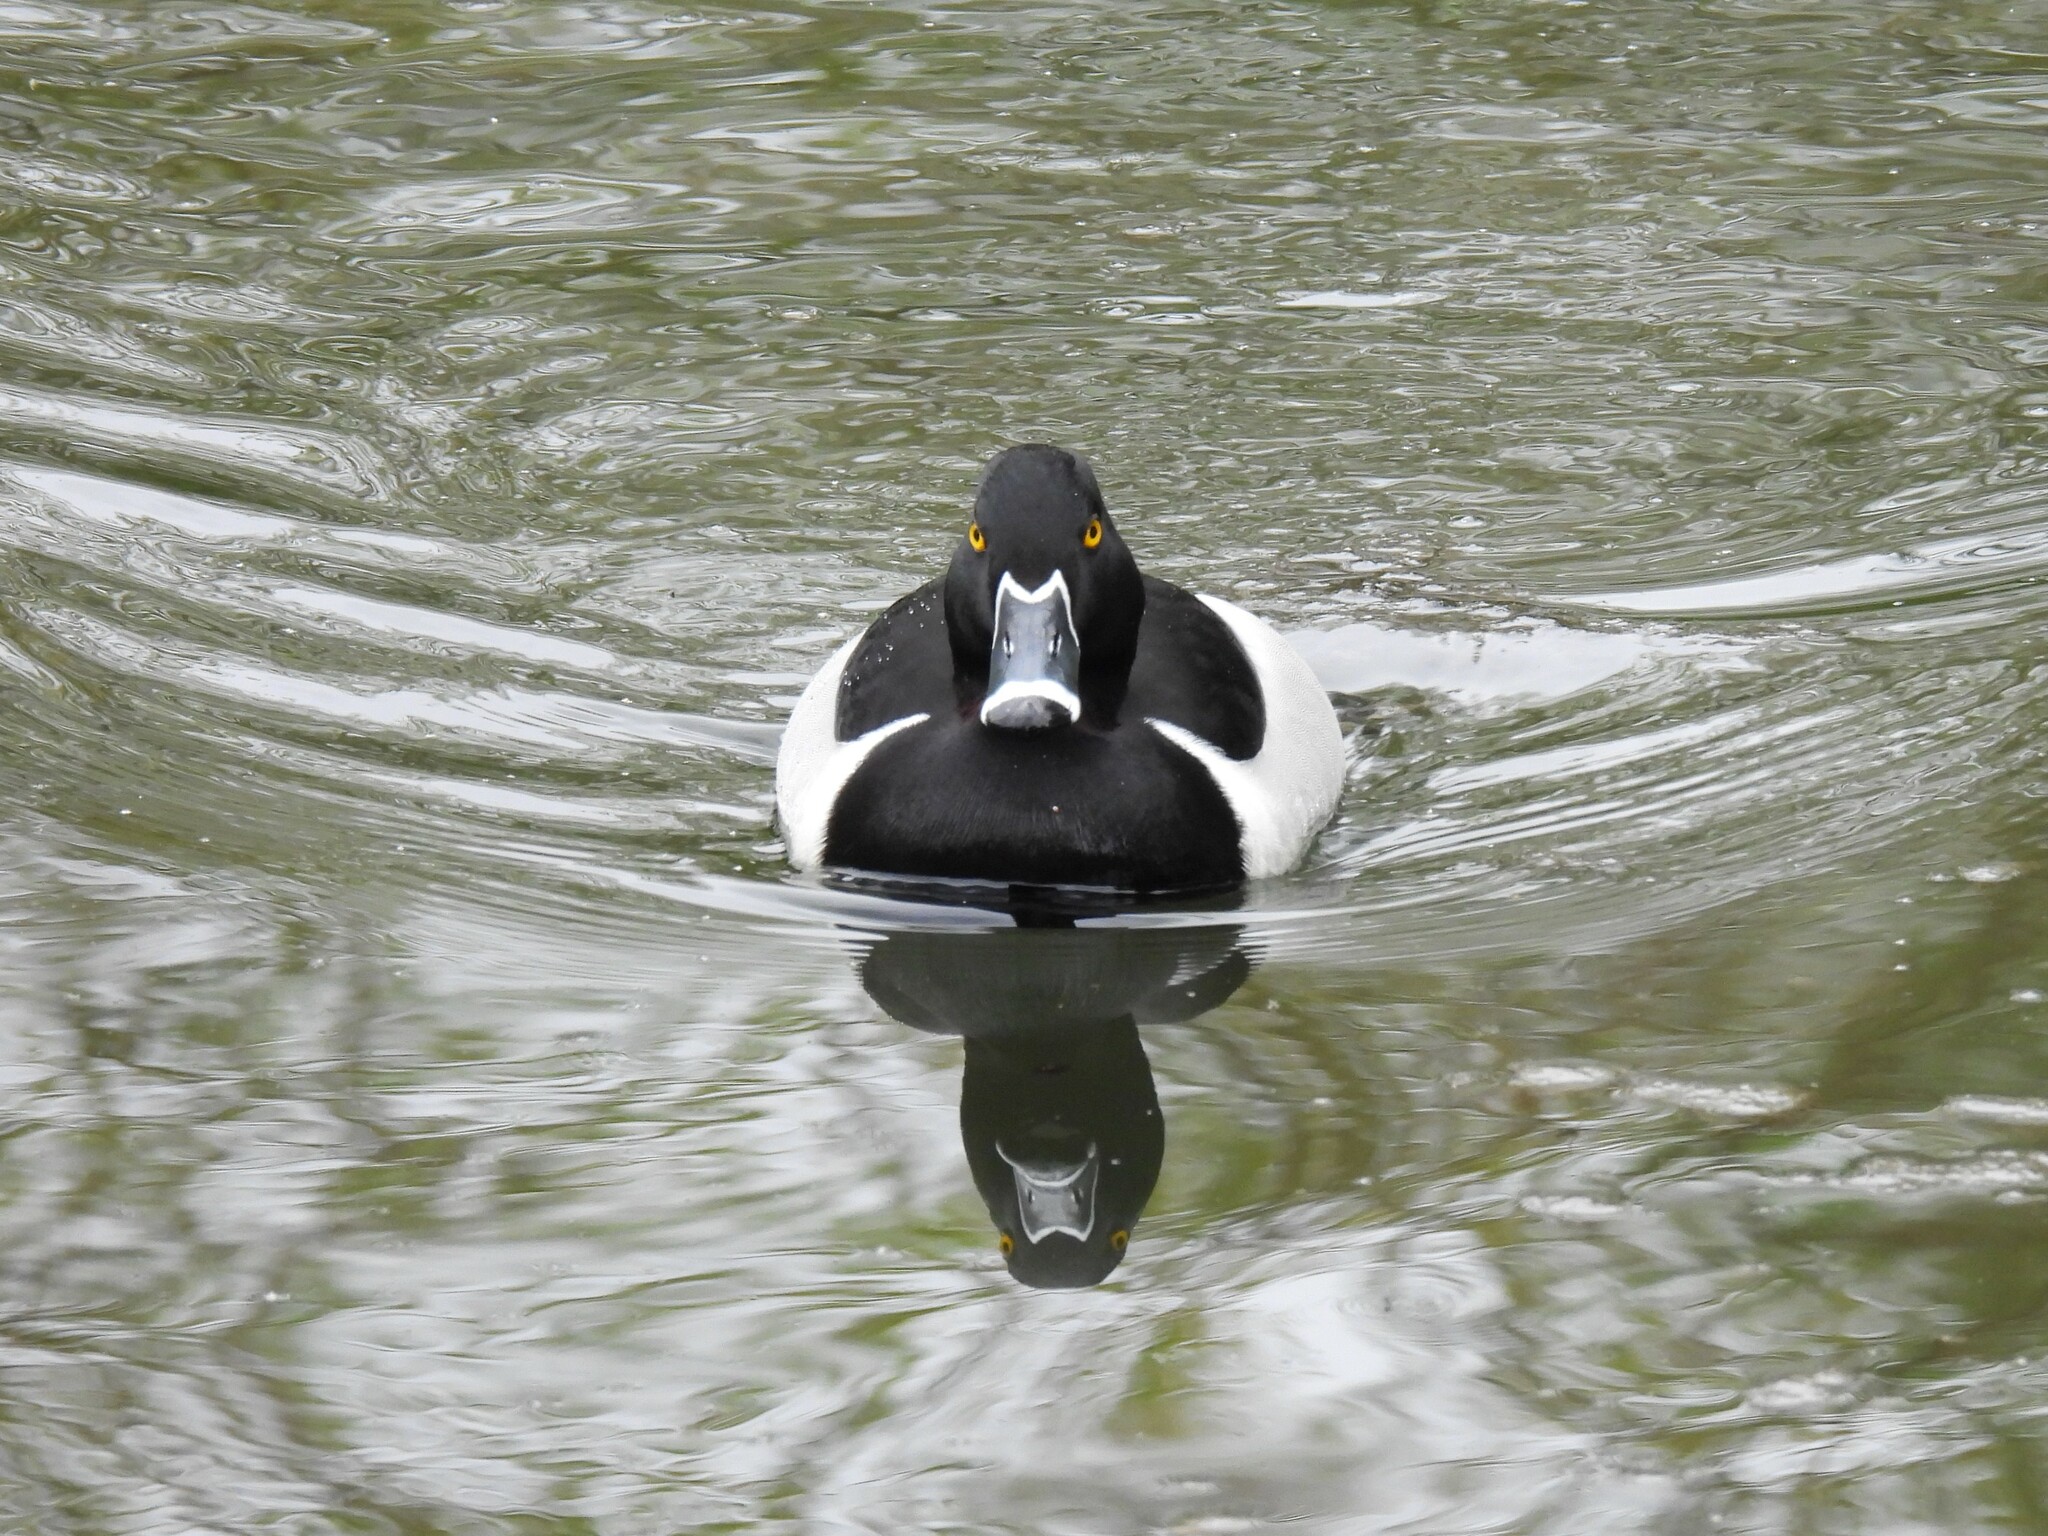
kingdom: Animalia
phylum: Chordata
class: Aves
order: Anseriformes
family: Anatidae
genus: Aythya
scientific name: Aythya collaris
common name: Ring-necked duck
